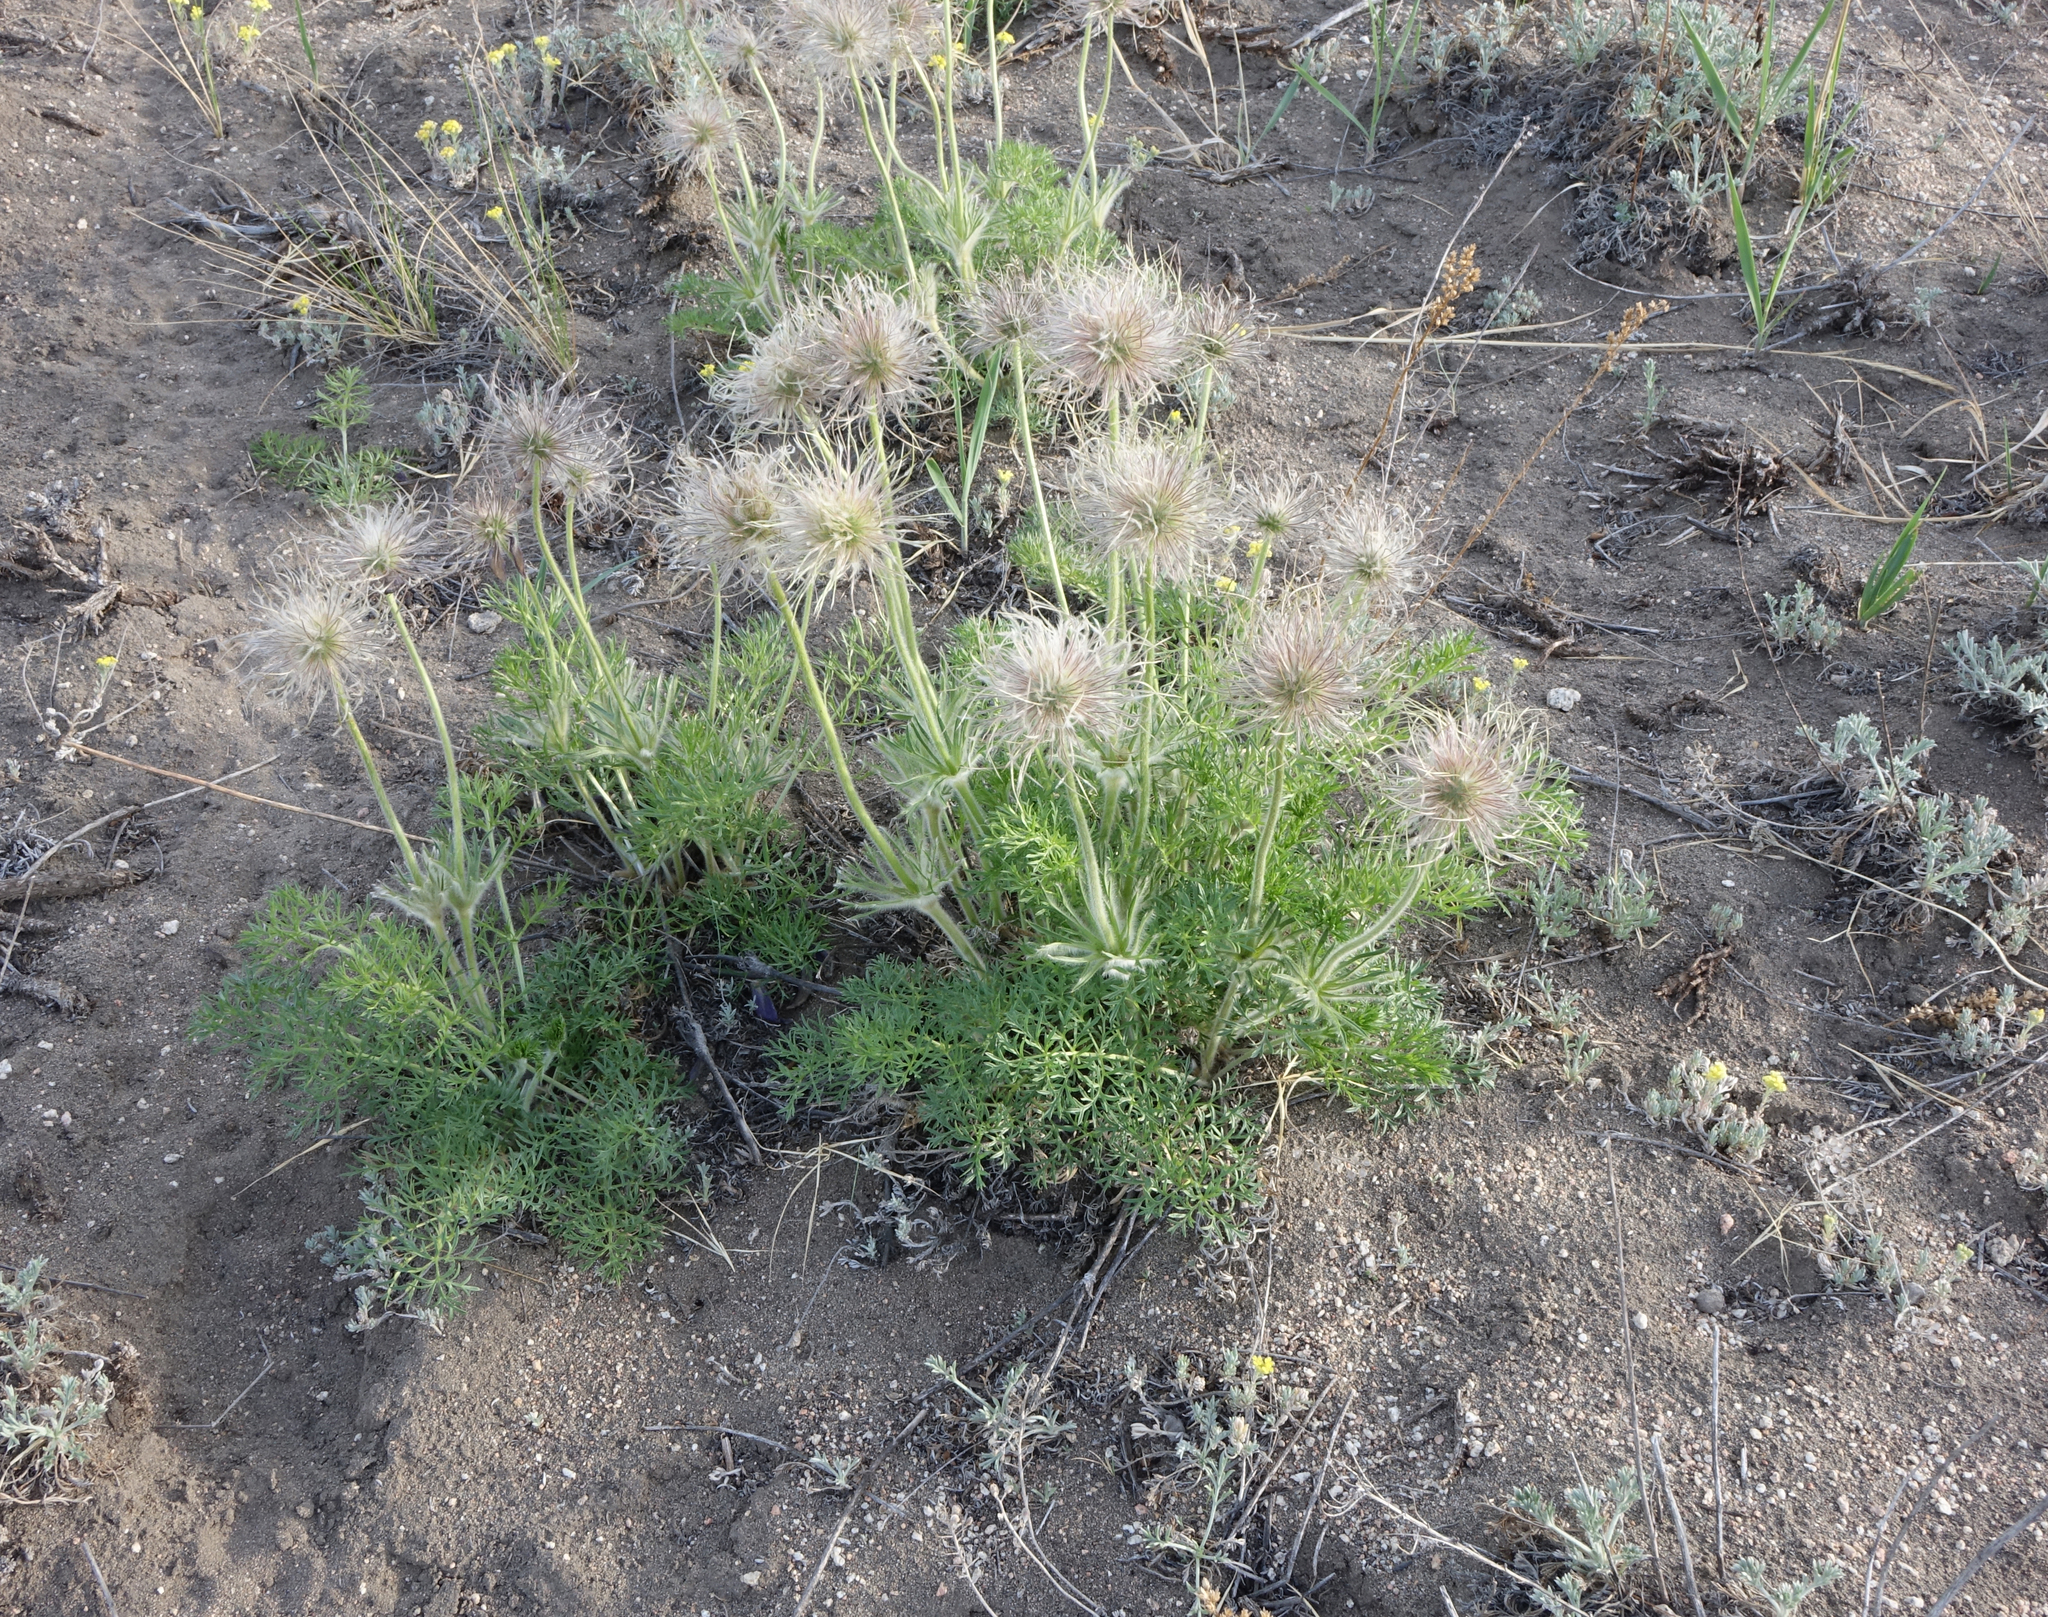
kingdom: Plantae
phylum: Tracheophyta
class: Magnoliopsida
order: Ranunculales
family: Ranunculaceae
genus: Pulsatilla
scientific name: Pulsatilla turczaninovii
